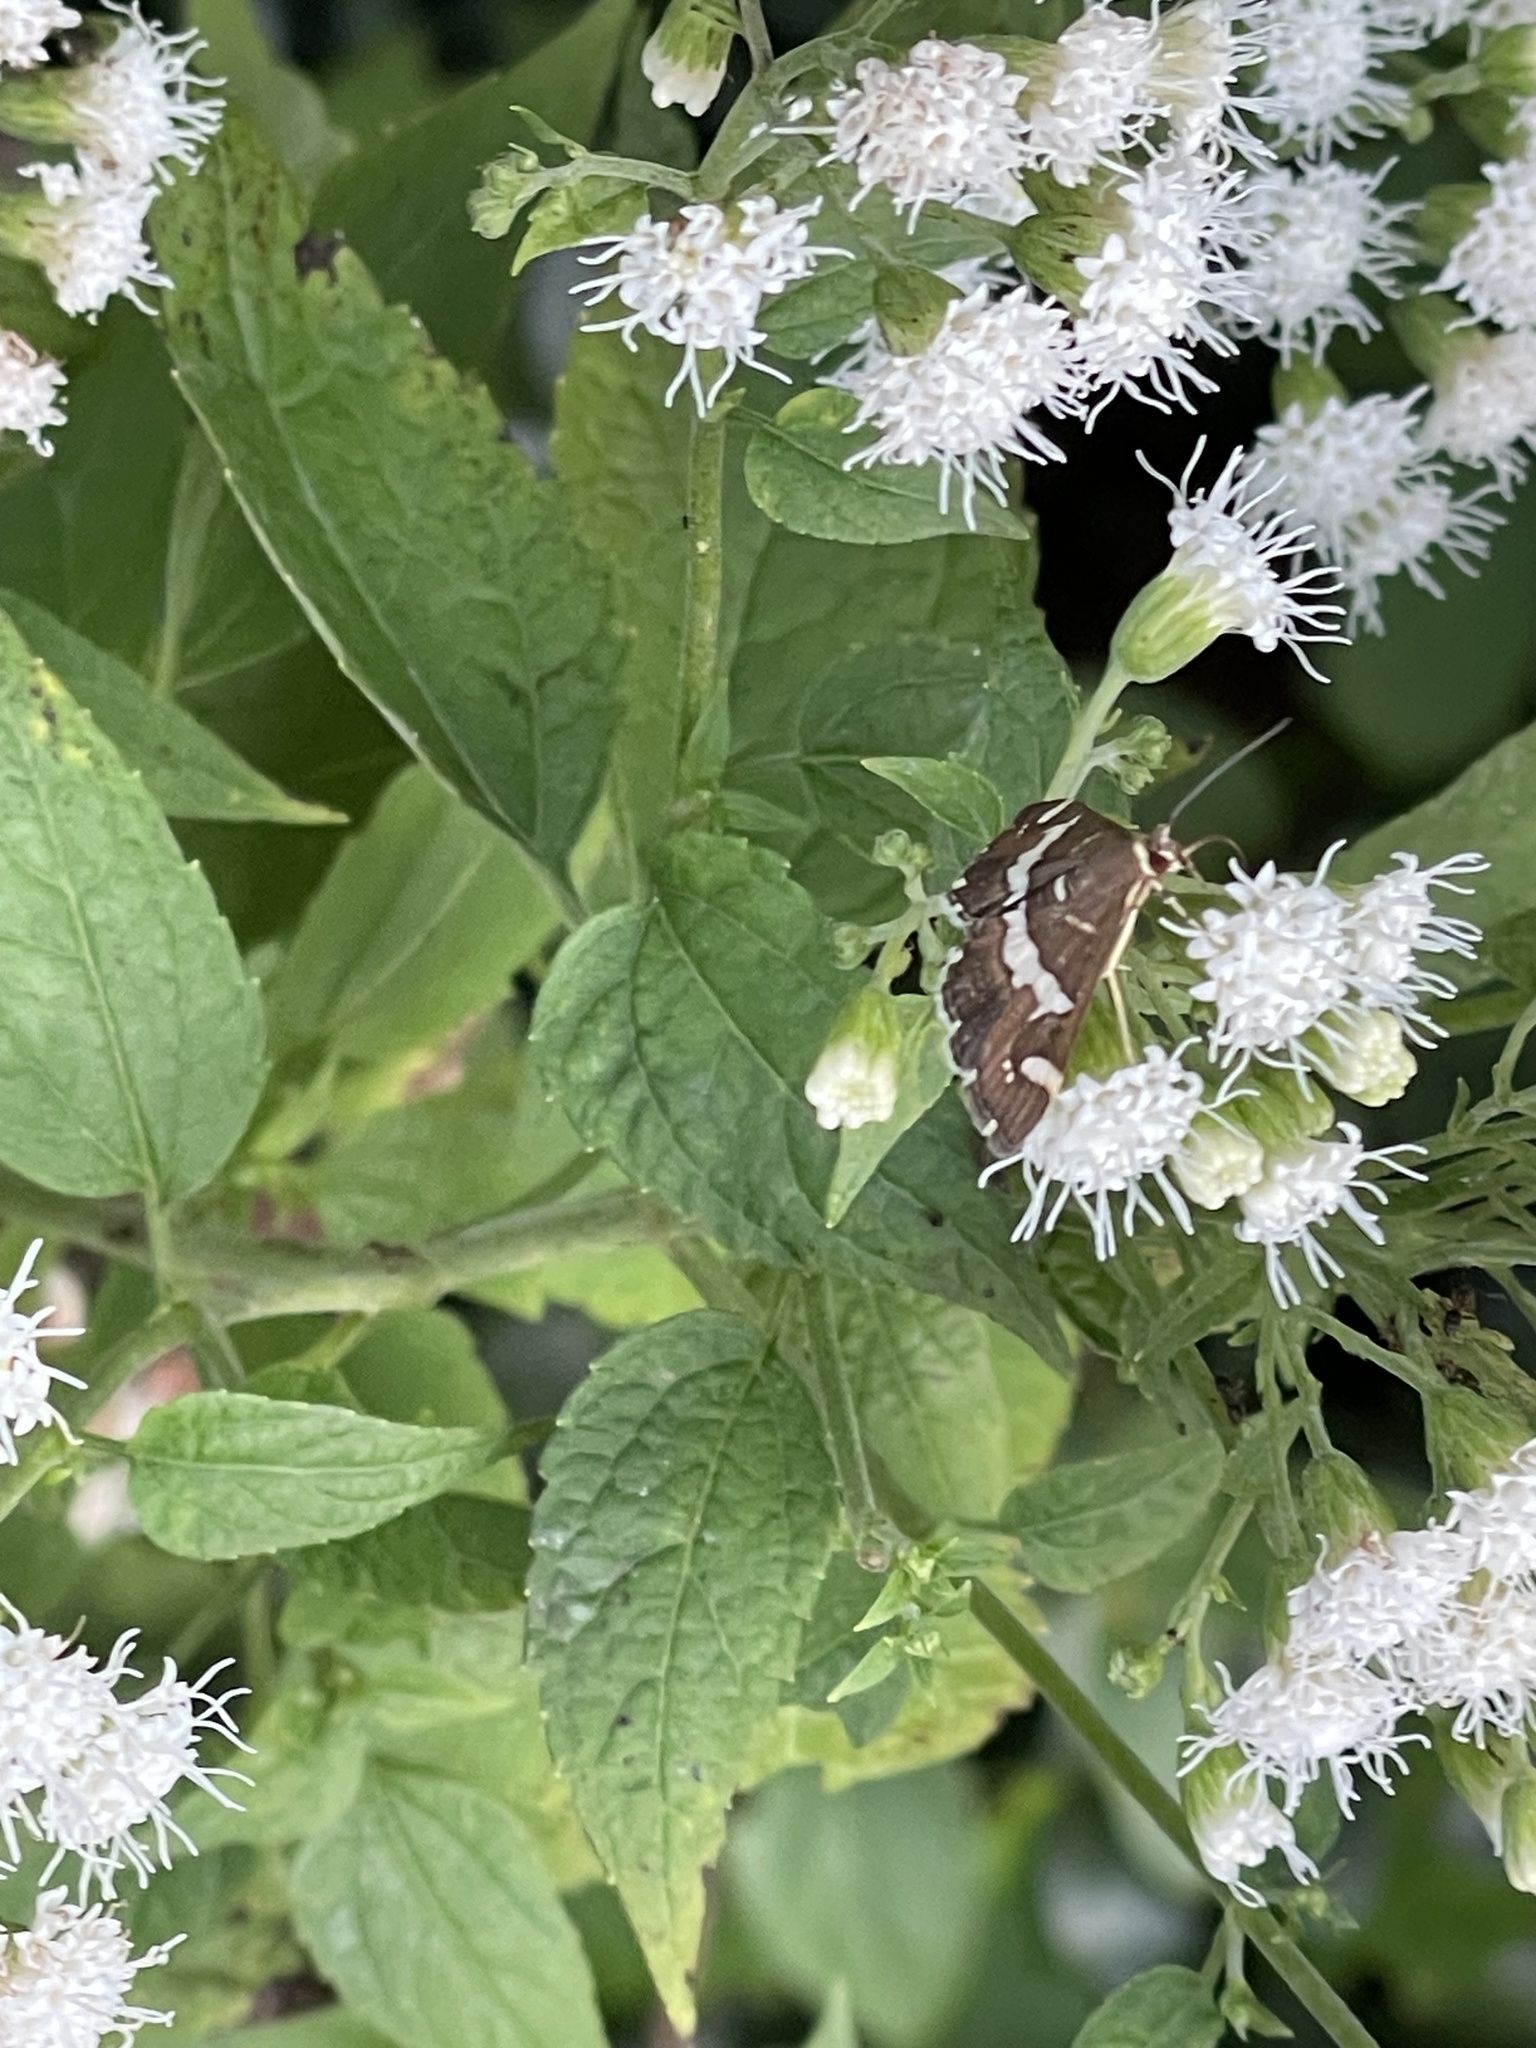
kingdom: Animalia
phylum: Arthropoda
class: Insecta
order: Lepidoptera
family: Crambidae
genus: Spoladea
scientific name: Spoladea recurvalis
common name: Beet webworm moth
